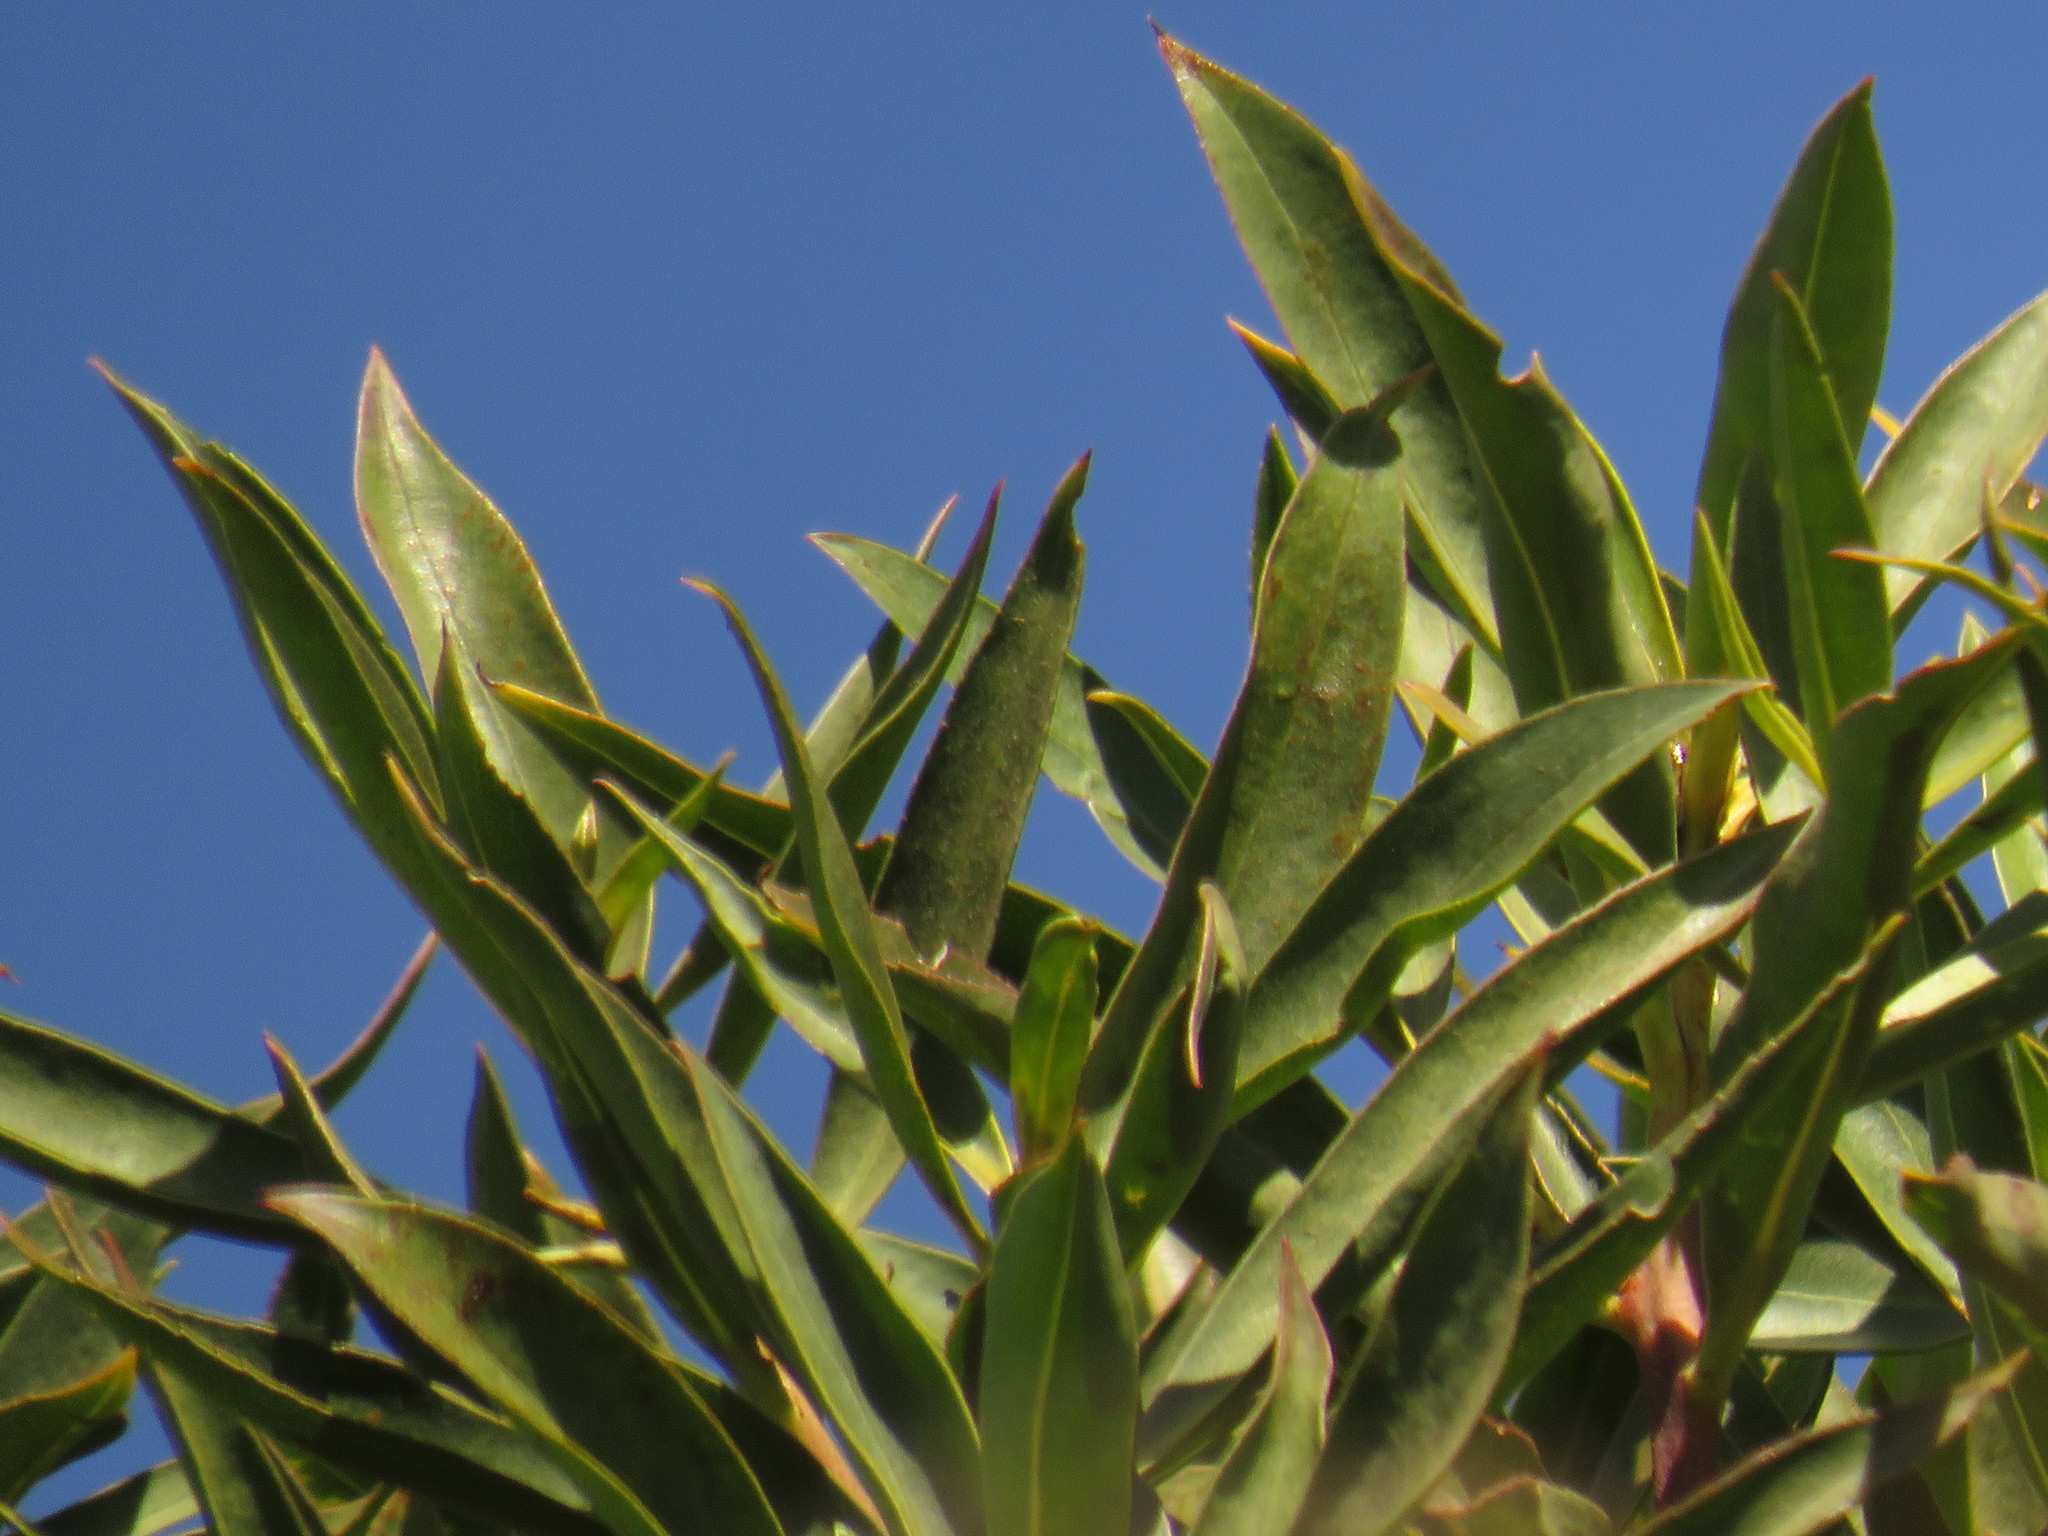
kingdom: Plantae
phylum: Tracheophyta
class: Magnoliopsida
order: Lamiales
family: Scrophulariaceae
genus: Myoporum
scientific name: Myoporum insulare
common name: Common boobialla
